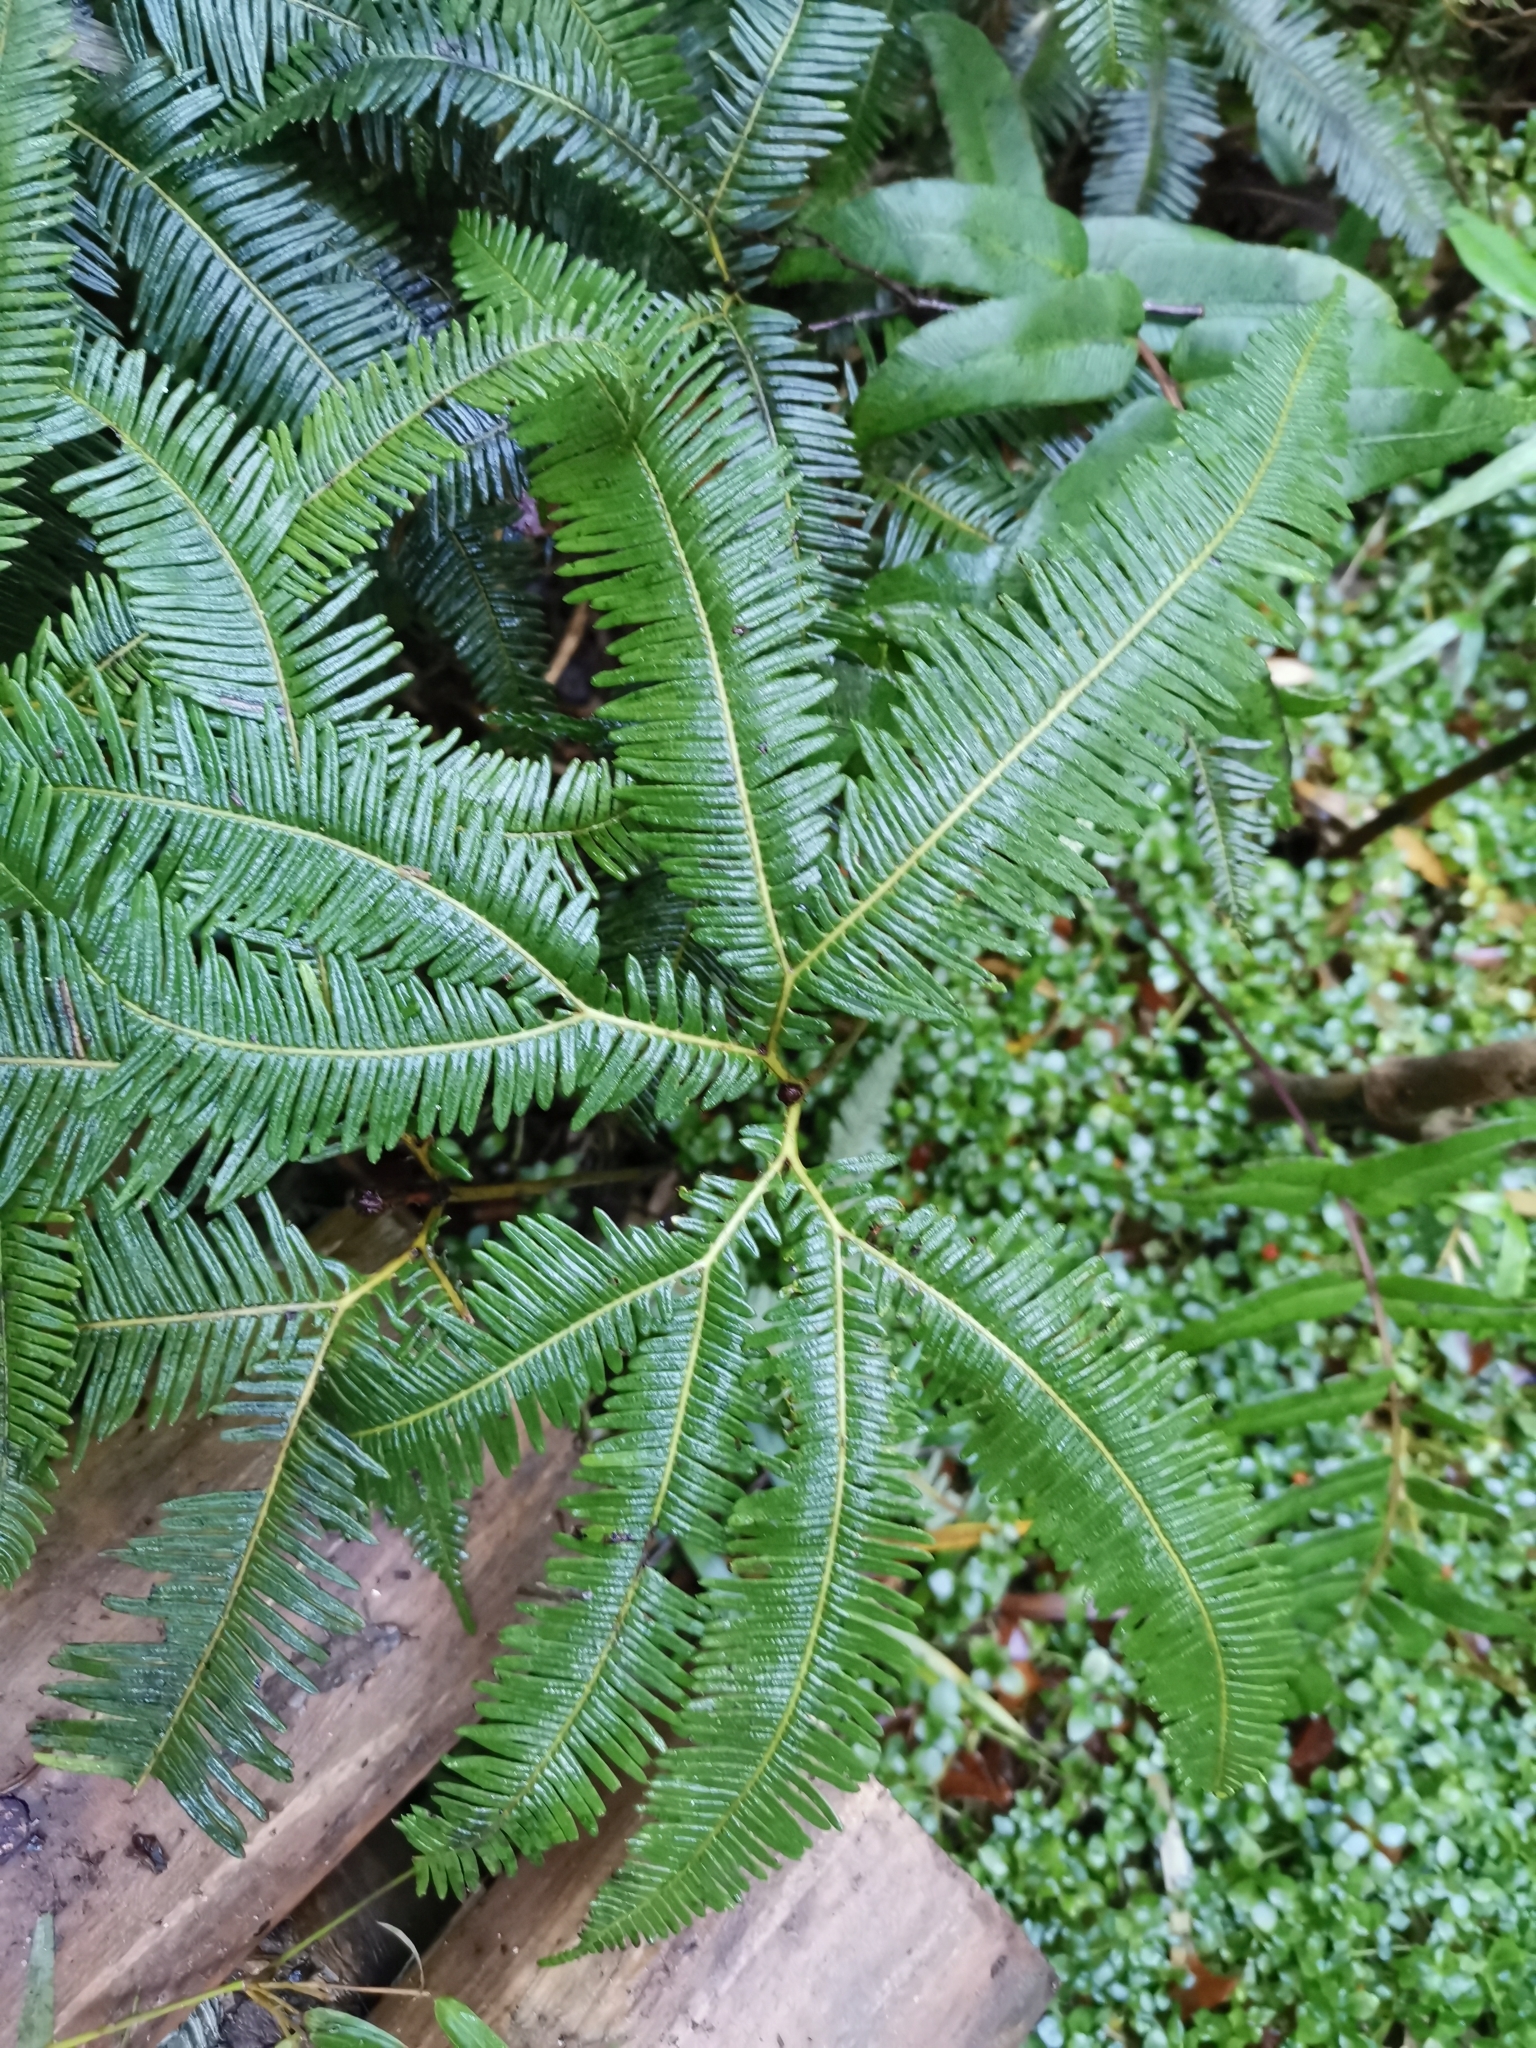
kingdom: Plantae
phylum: Tracheophyta
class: Polypodiopsida
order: Gleicheniales
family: Gleicheniaceae
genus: Sticherus
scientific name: Sticherus quadripartitus
